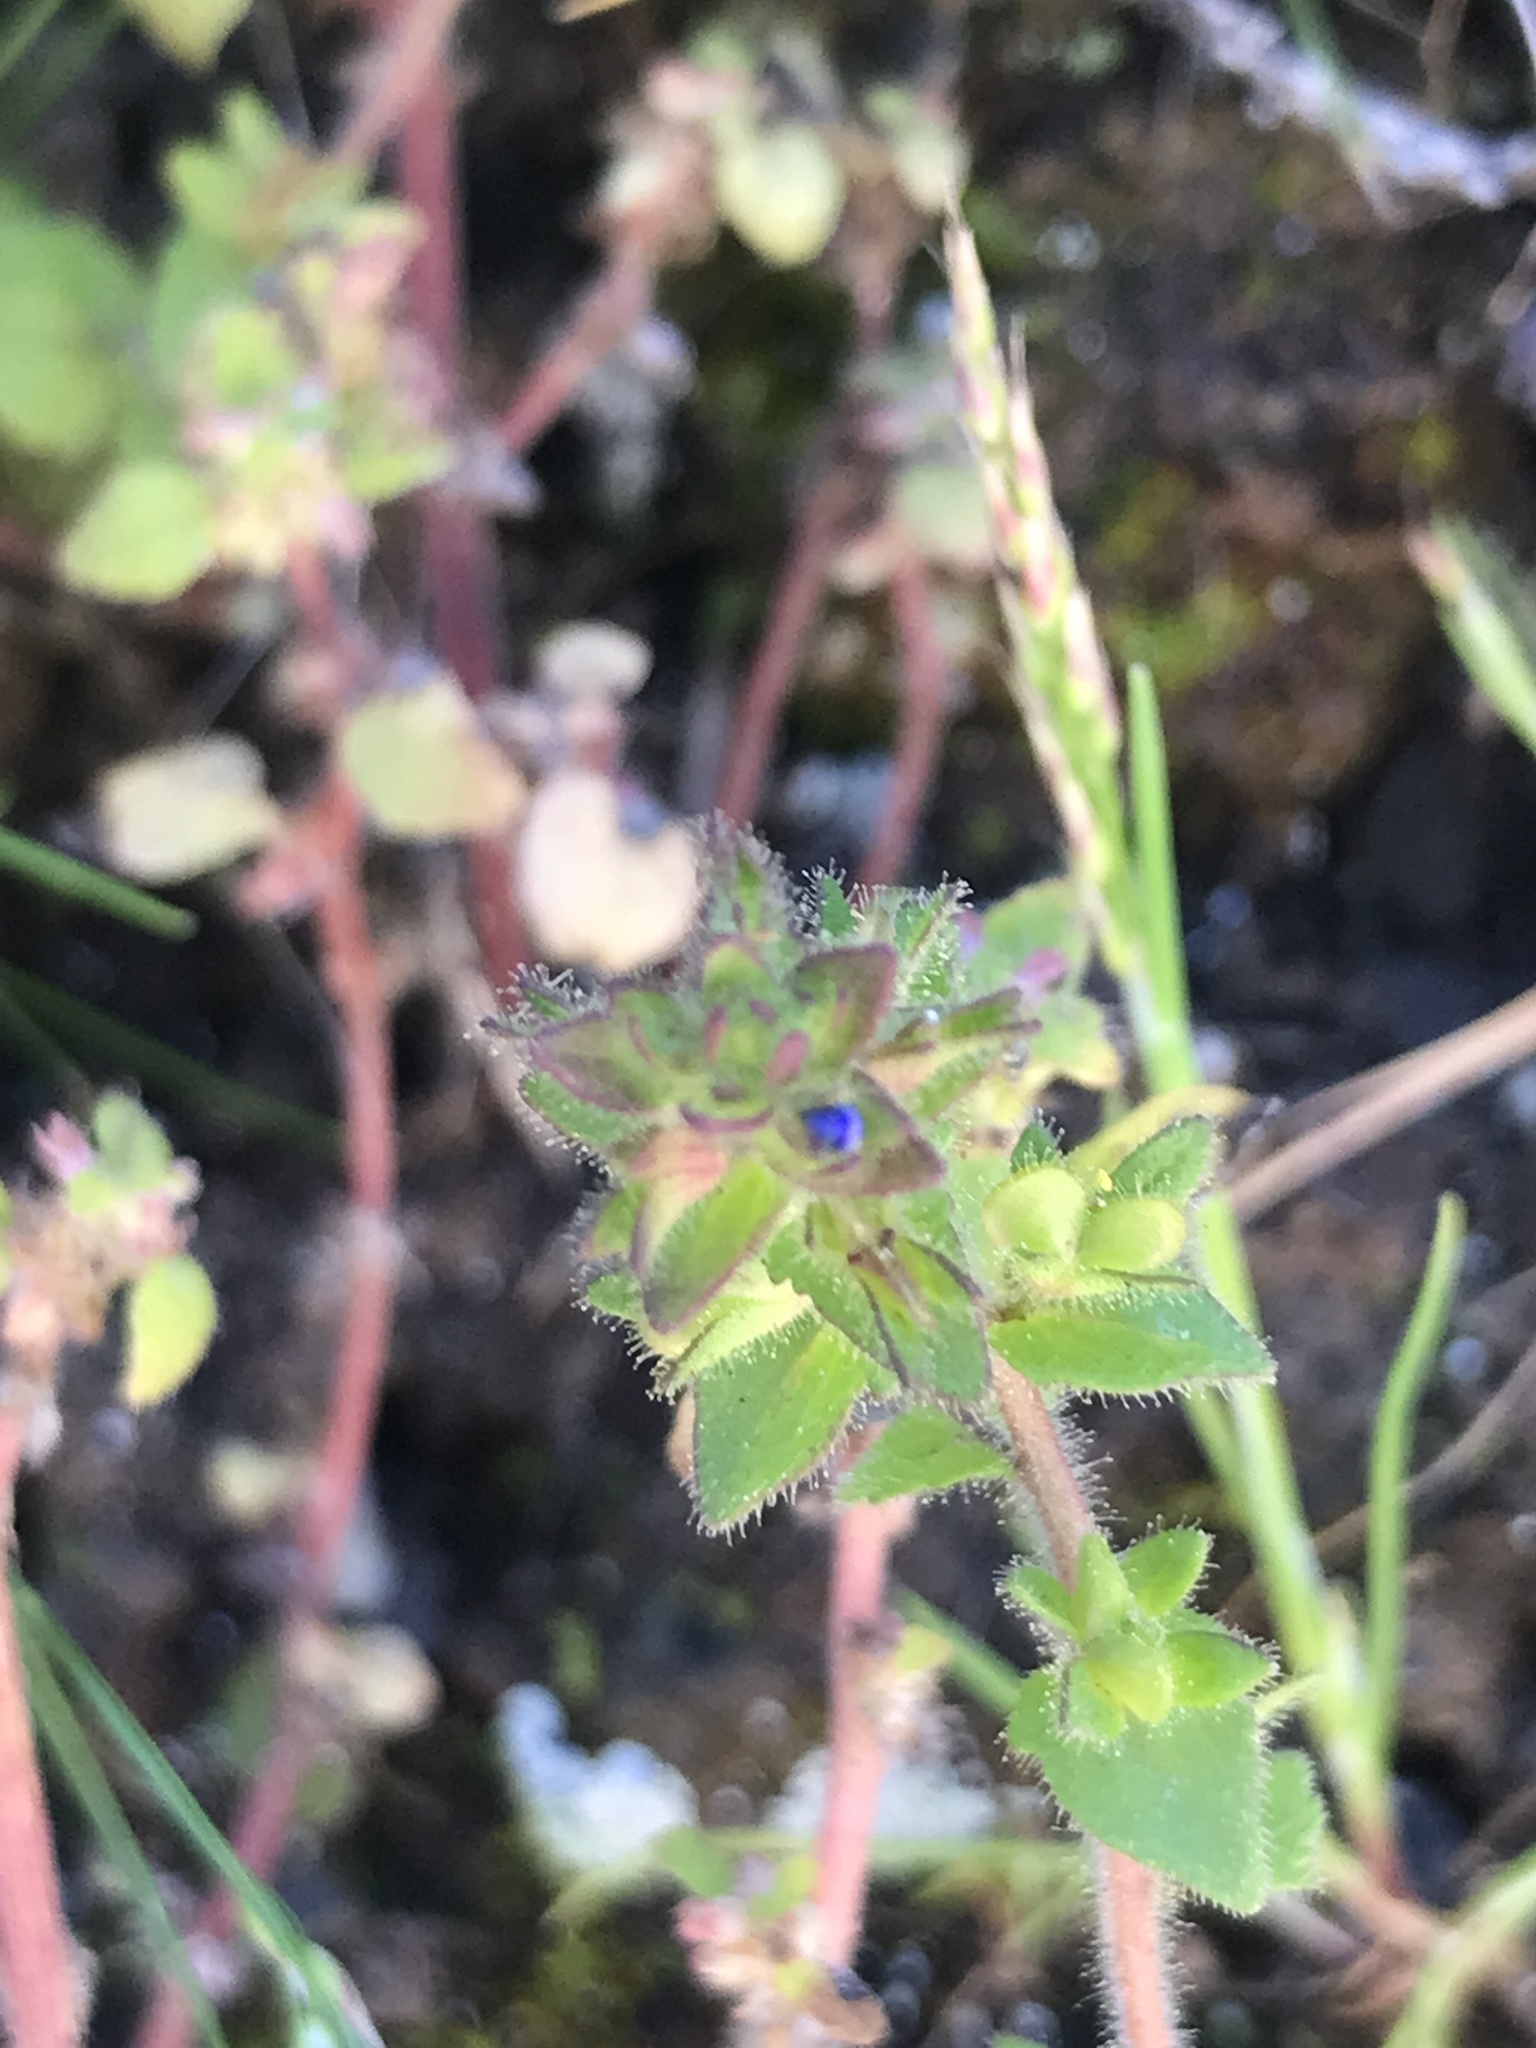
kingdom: Plantae
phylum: Tracheophyta
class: Magnoliopsida
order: Lamiales
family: Plantaginaceae
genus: Veronica
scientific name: Veronica arvensis
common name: Corn speedwell
